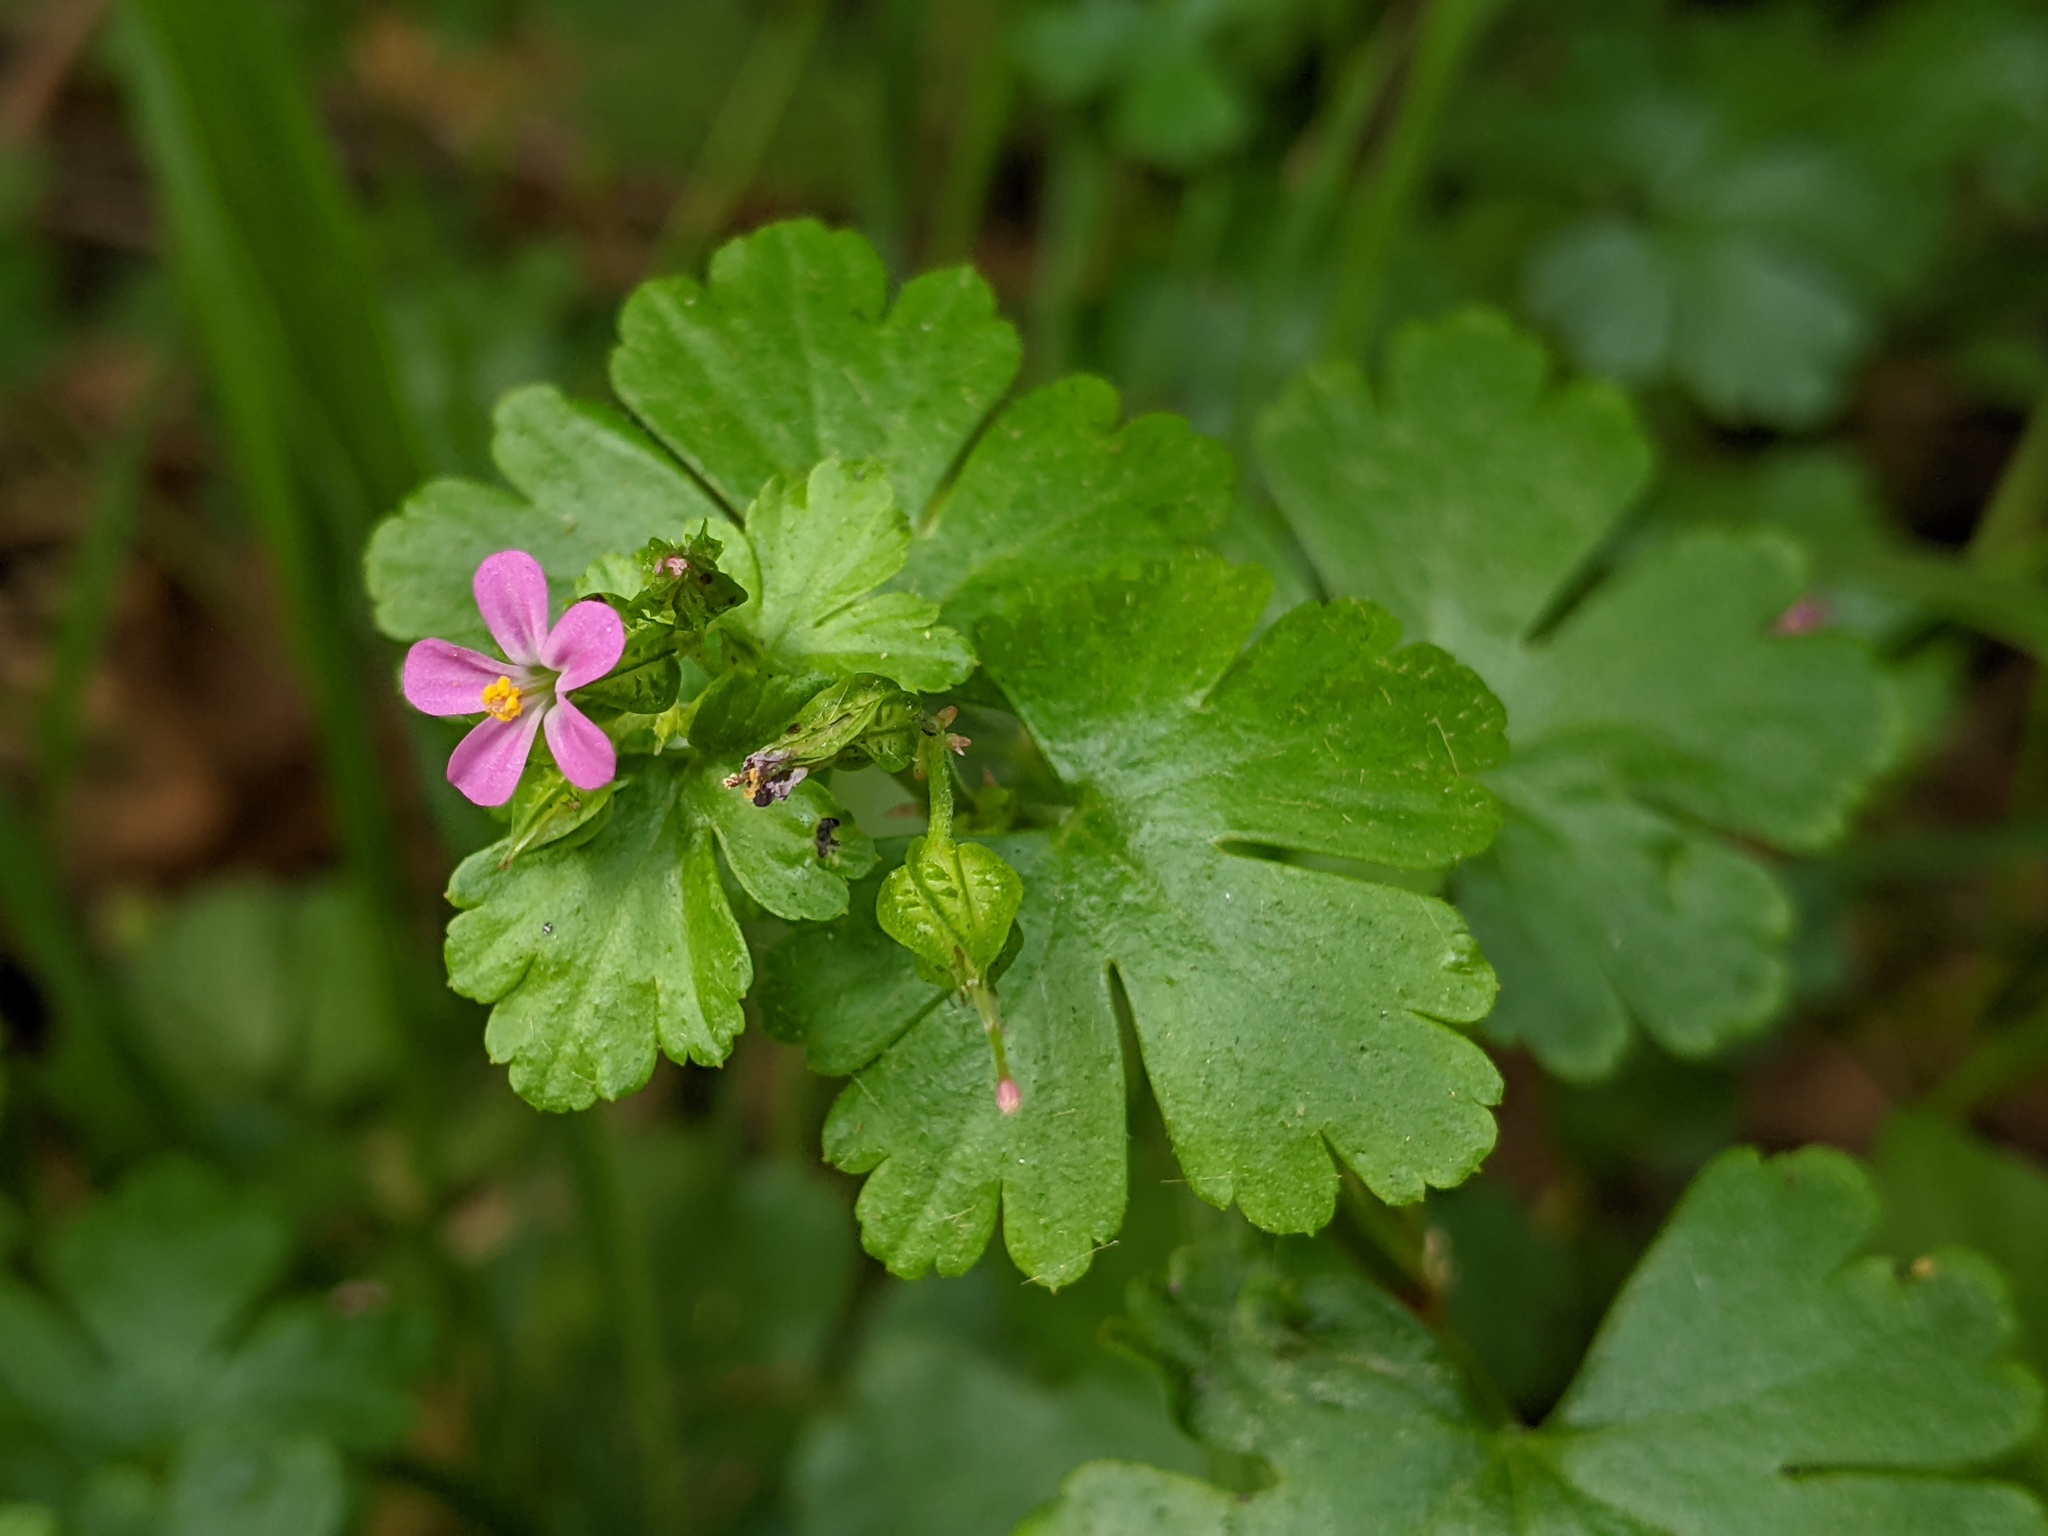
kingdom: Plantae
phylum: Tracheophyta
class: Magnoliopsida
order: Geraniales
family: Geraniaceae
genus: Geranium
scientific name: Geranium lucidum
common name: Shining crane's-bill
